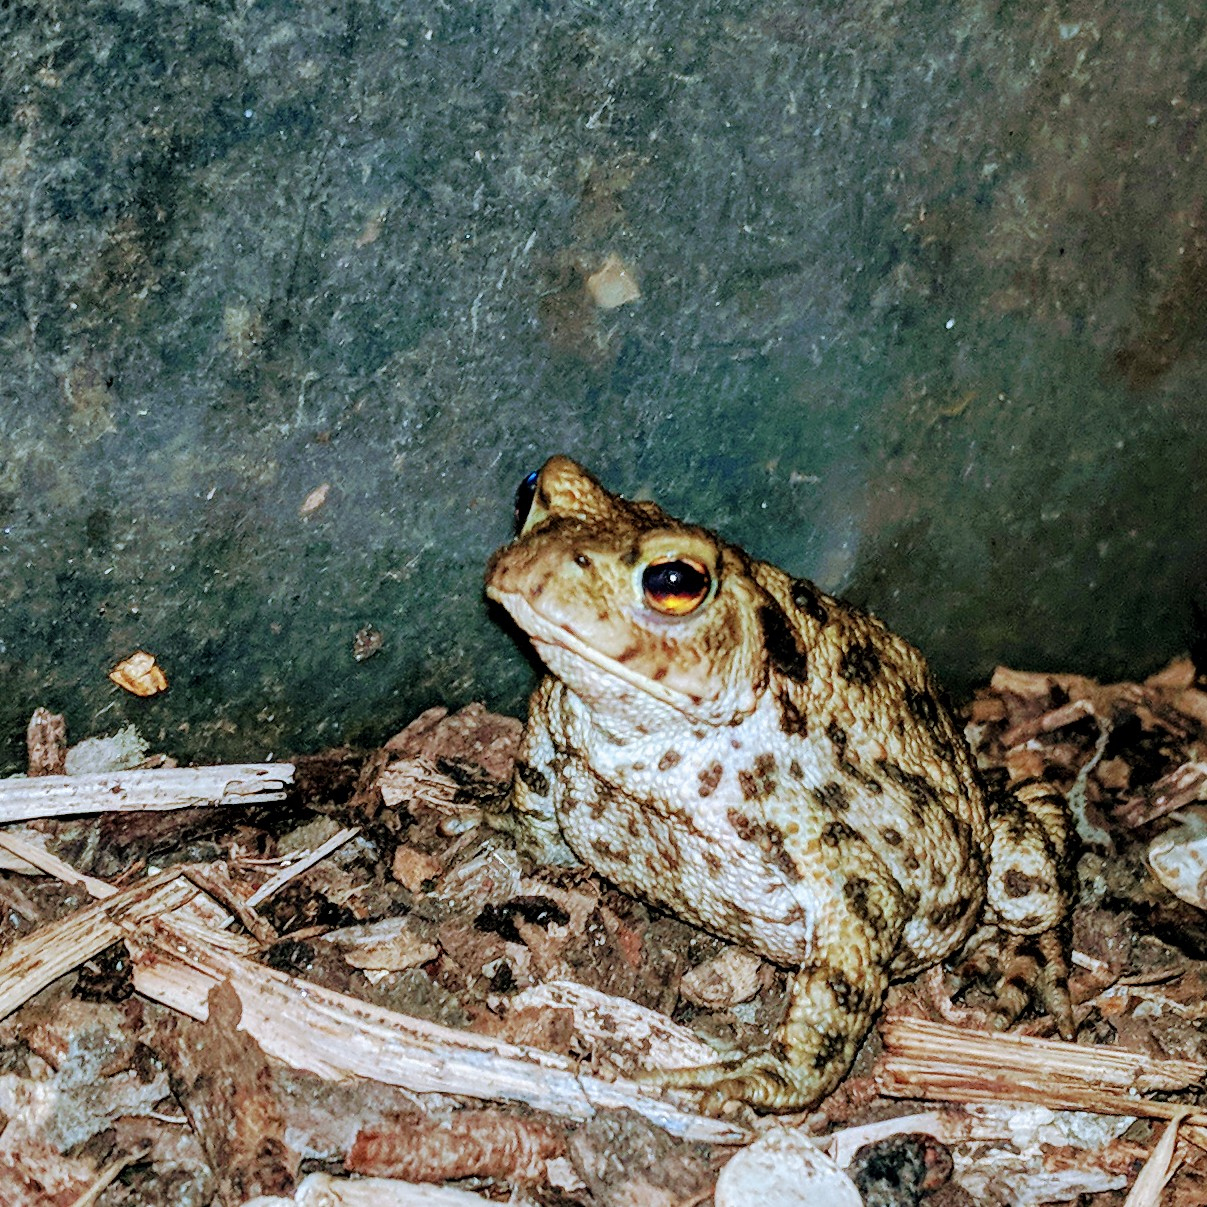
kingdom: Animalia
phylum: Chordata
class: Amphibia
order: Anura
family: Bufonidae
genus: Bufo
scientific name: Bufo bufo
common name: Common toad
